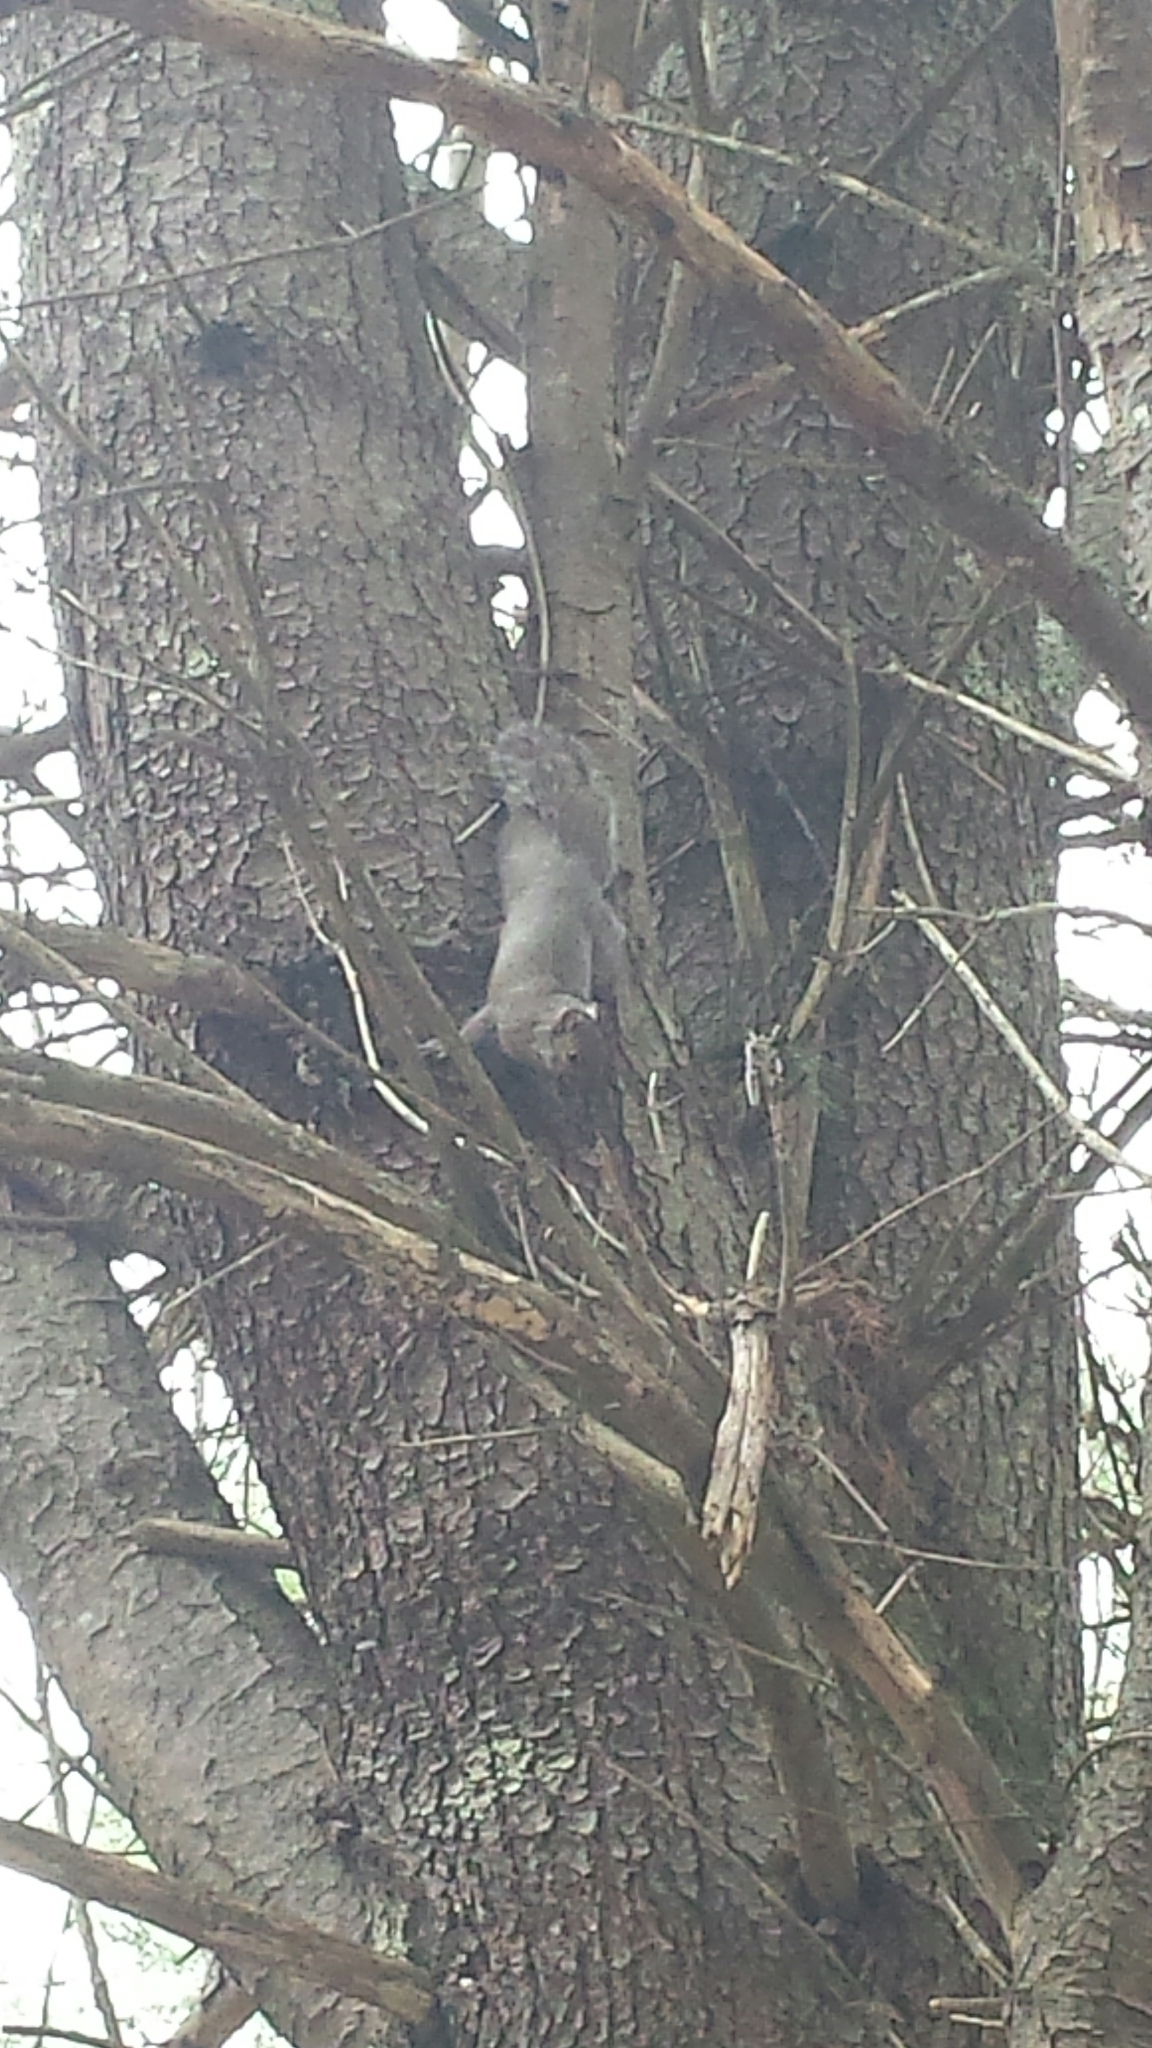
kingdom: Animalia
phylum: Chordata
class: Mammalia
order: Rodentia
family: Sciuridae
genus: Sciurus
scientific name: Sciurus carolinensis
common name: Eastern gray squirrel
